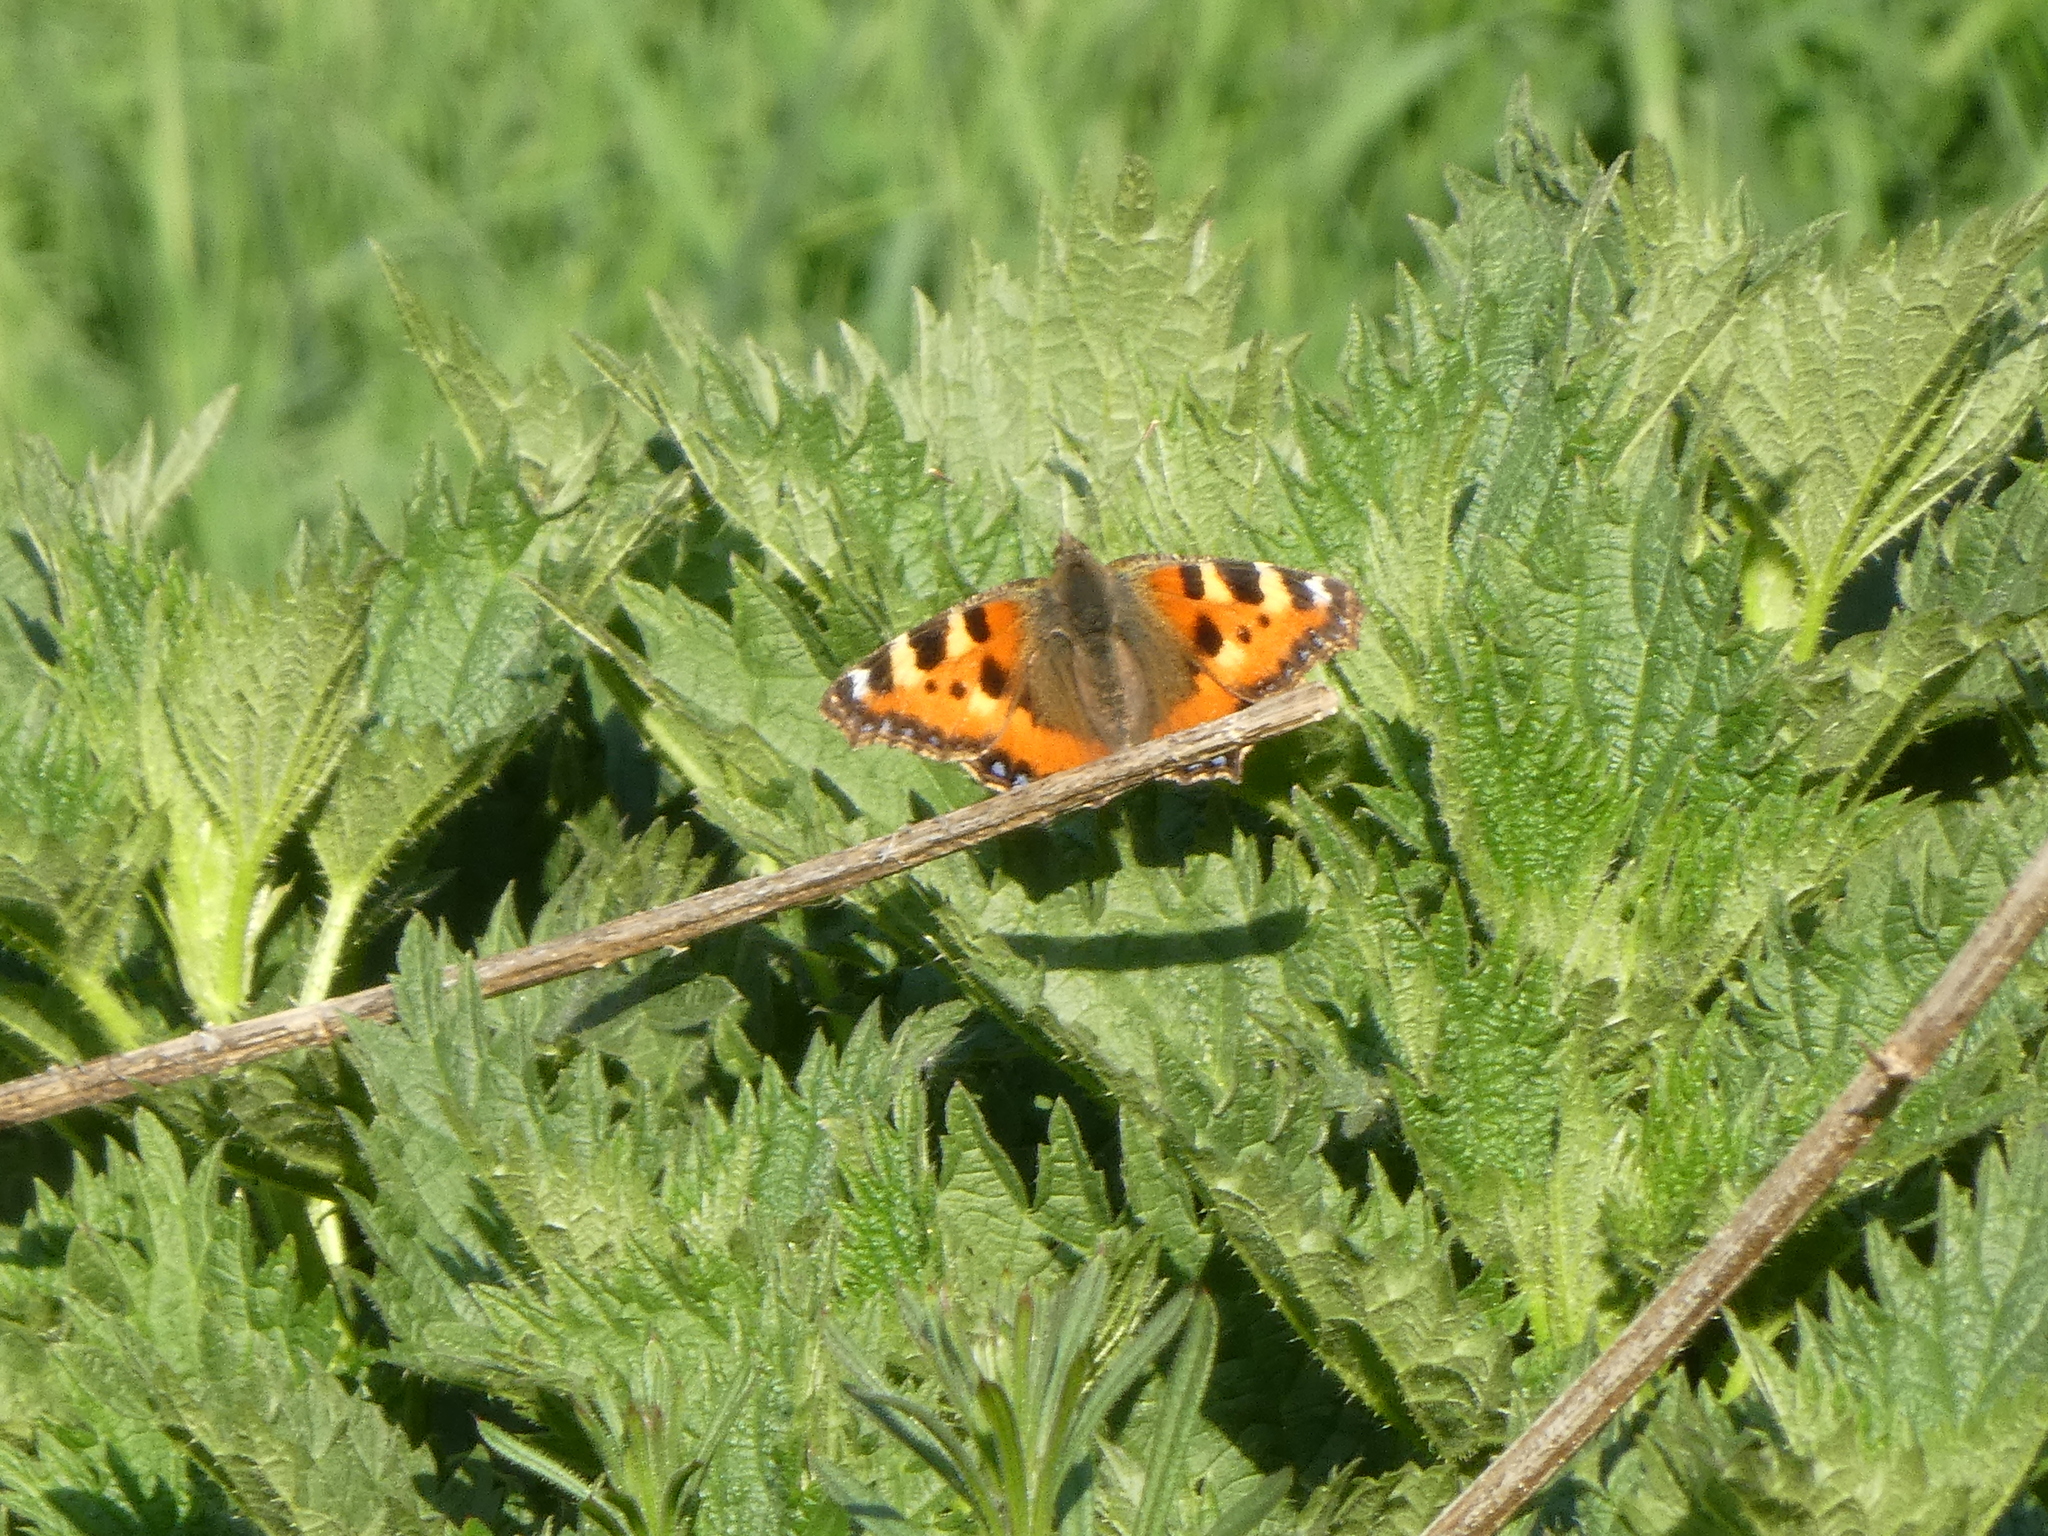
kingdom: Animalia
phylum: Arthropoda
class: Insecta
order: Lepidoptera
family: Nymphalidae
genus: Aglais
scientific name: Aglais urticae
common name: Small tortoiseshell
